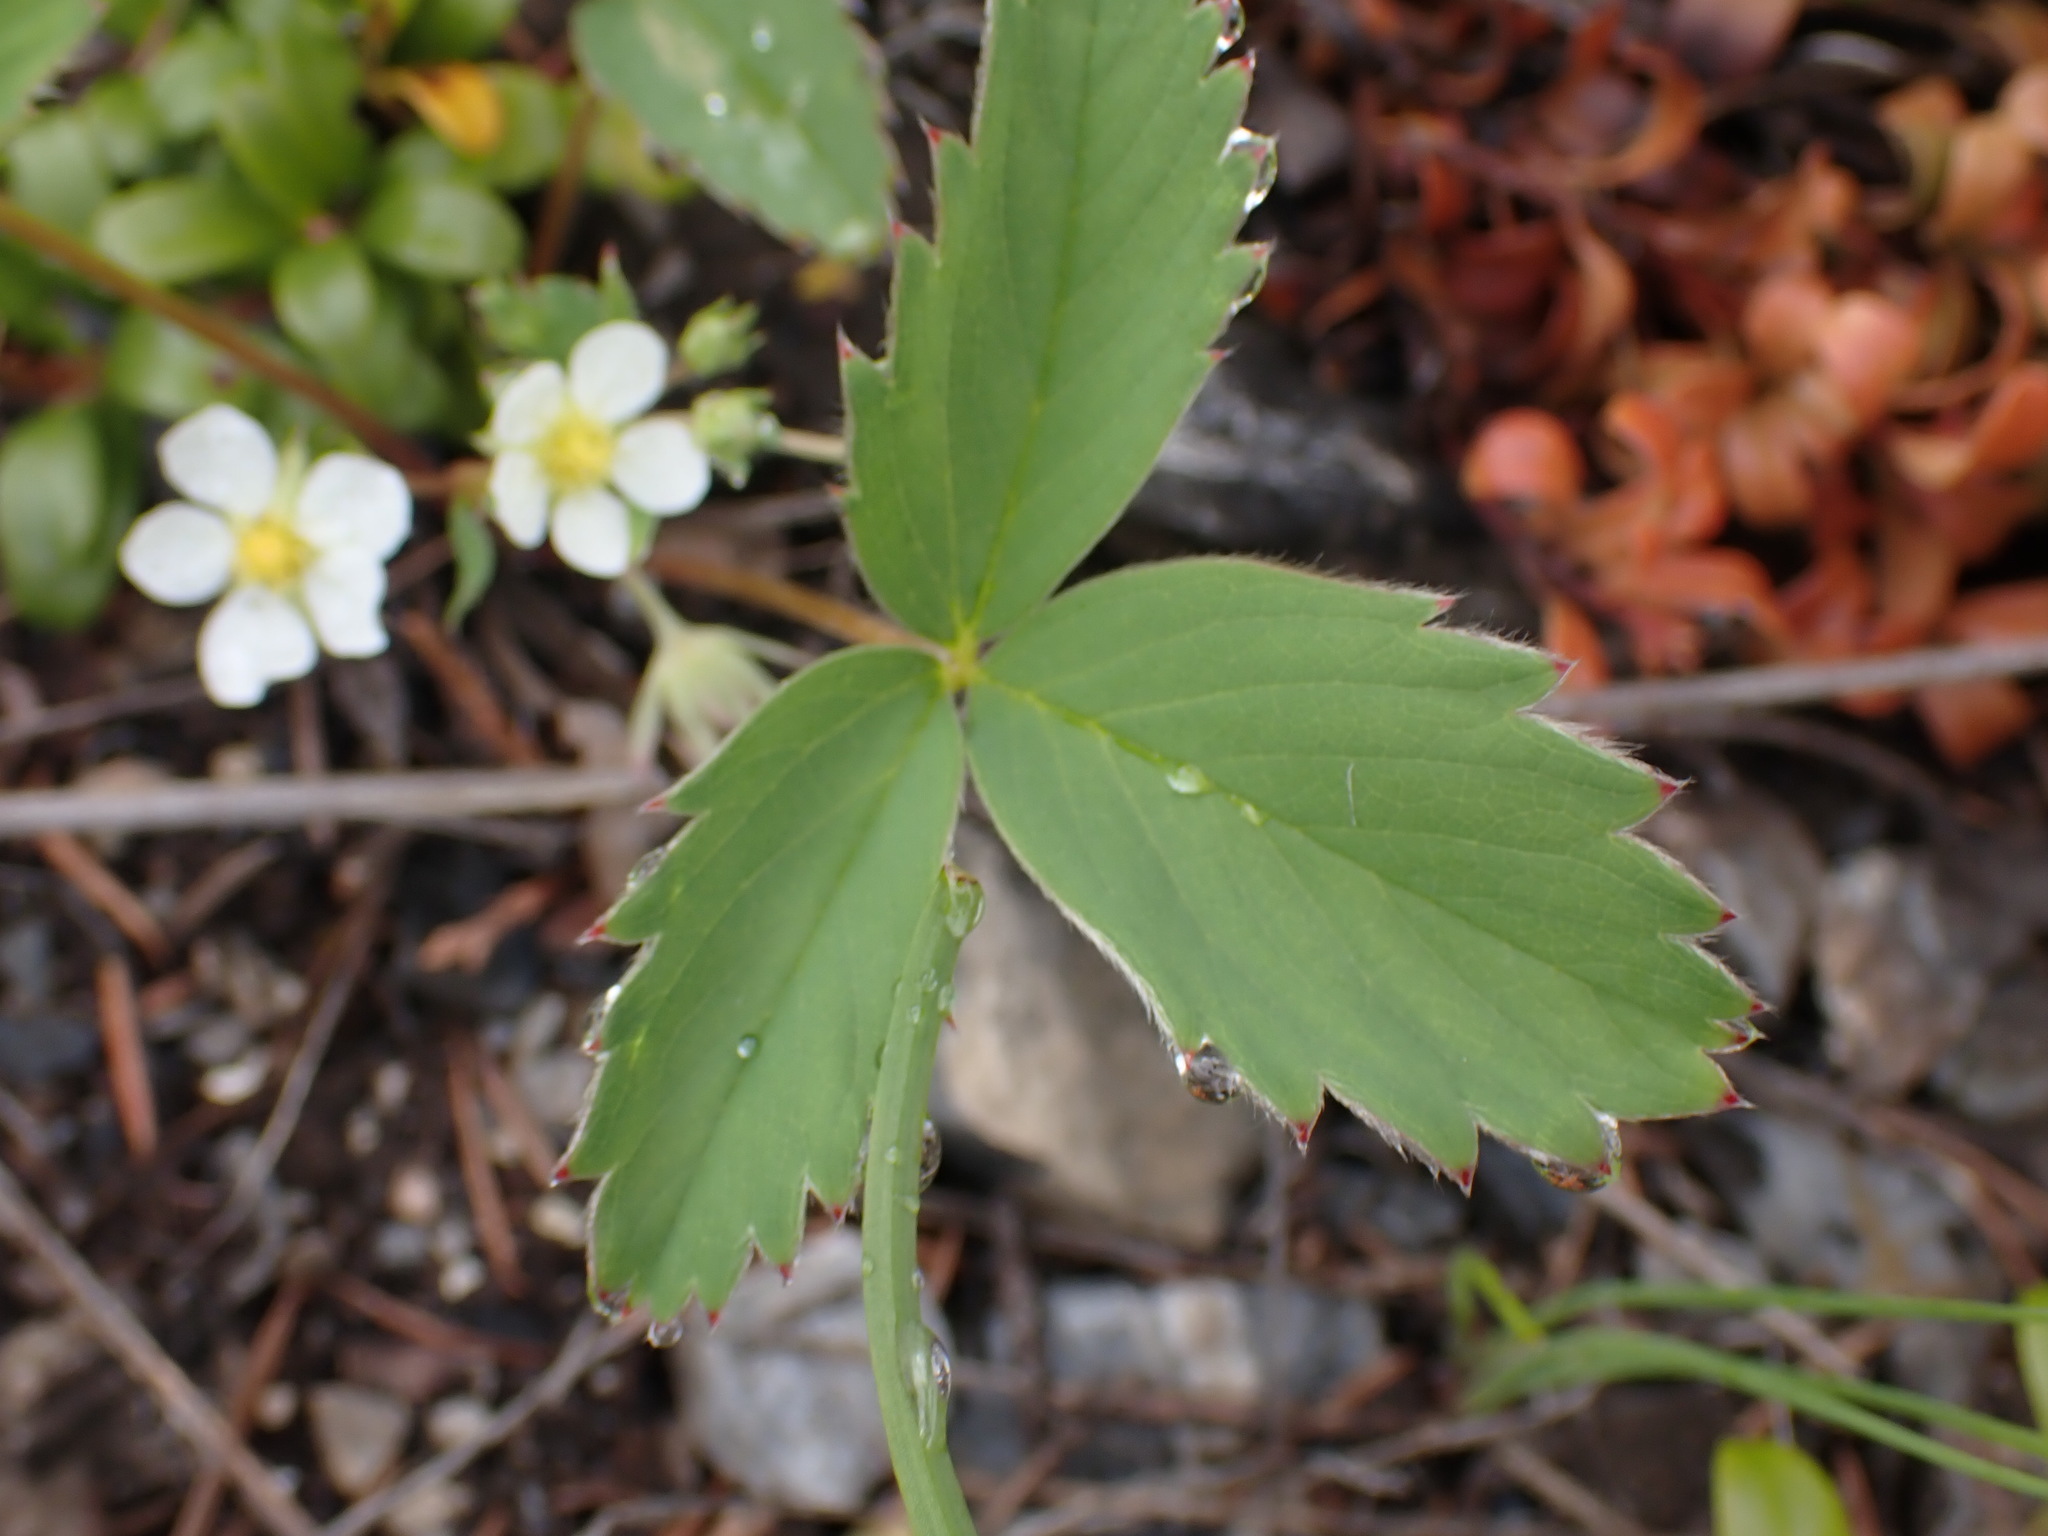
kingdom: Plantae
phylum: Tracheophyta
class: Magnoliopsida
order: Rosales
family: Rosaceae
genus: Fragaria
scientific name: Fragaria virginiana
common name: Thickleaved wild strawberry
